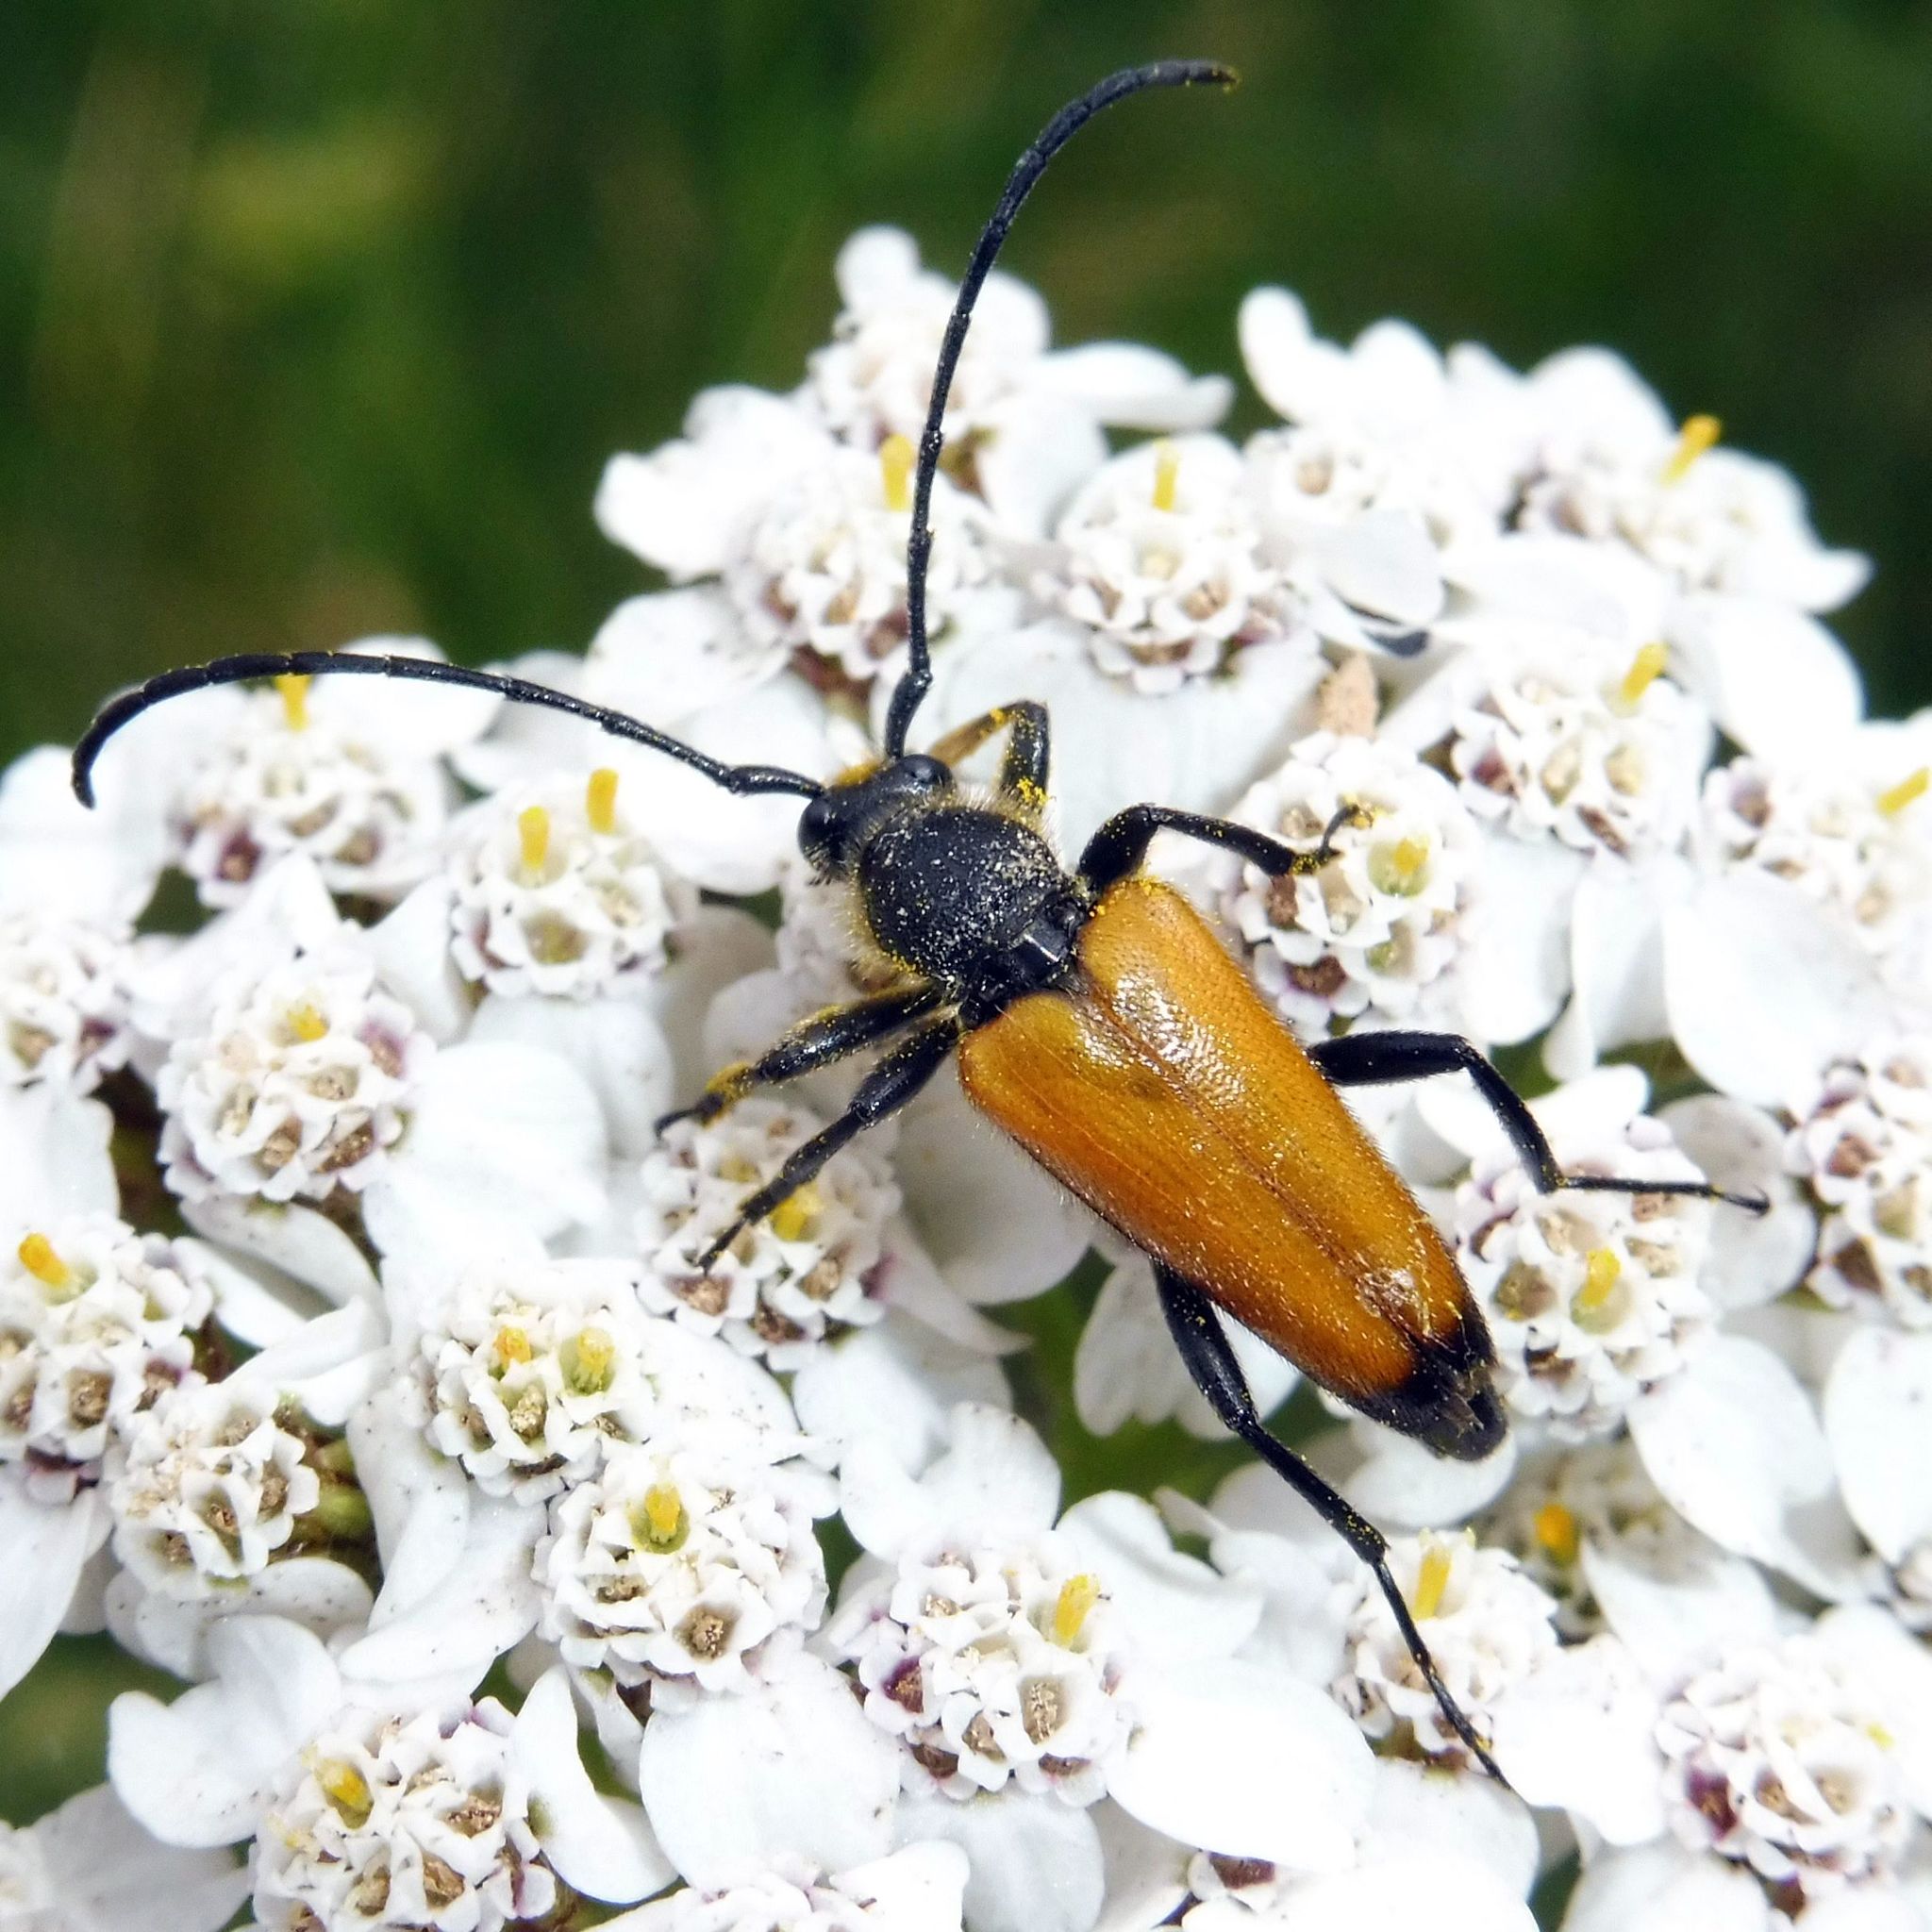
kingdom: Animalia
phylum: Arthropoda
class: Insecta
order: Coleoptera
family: Cerambycidae
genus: Paracorymbia
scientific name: Paracorymbia fulva
